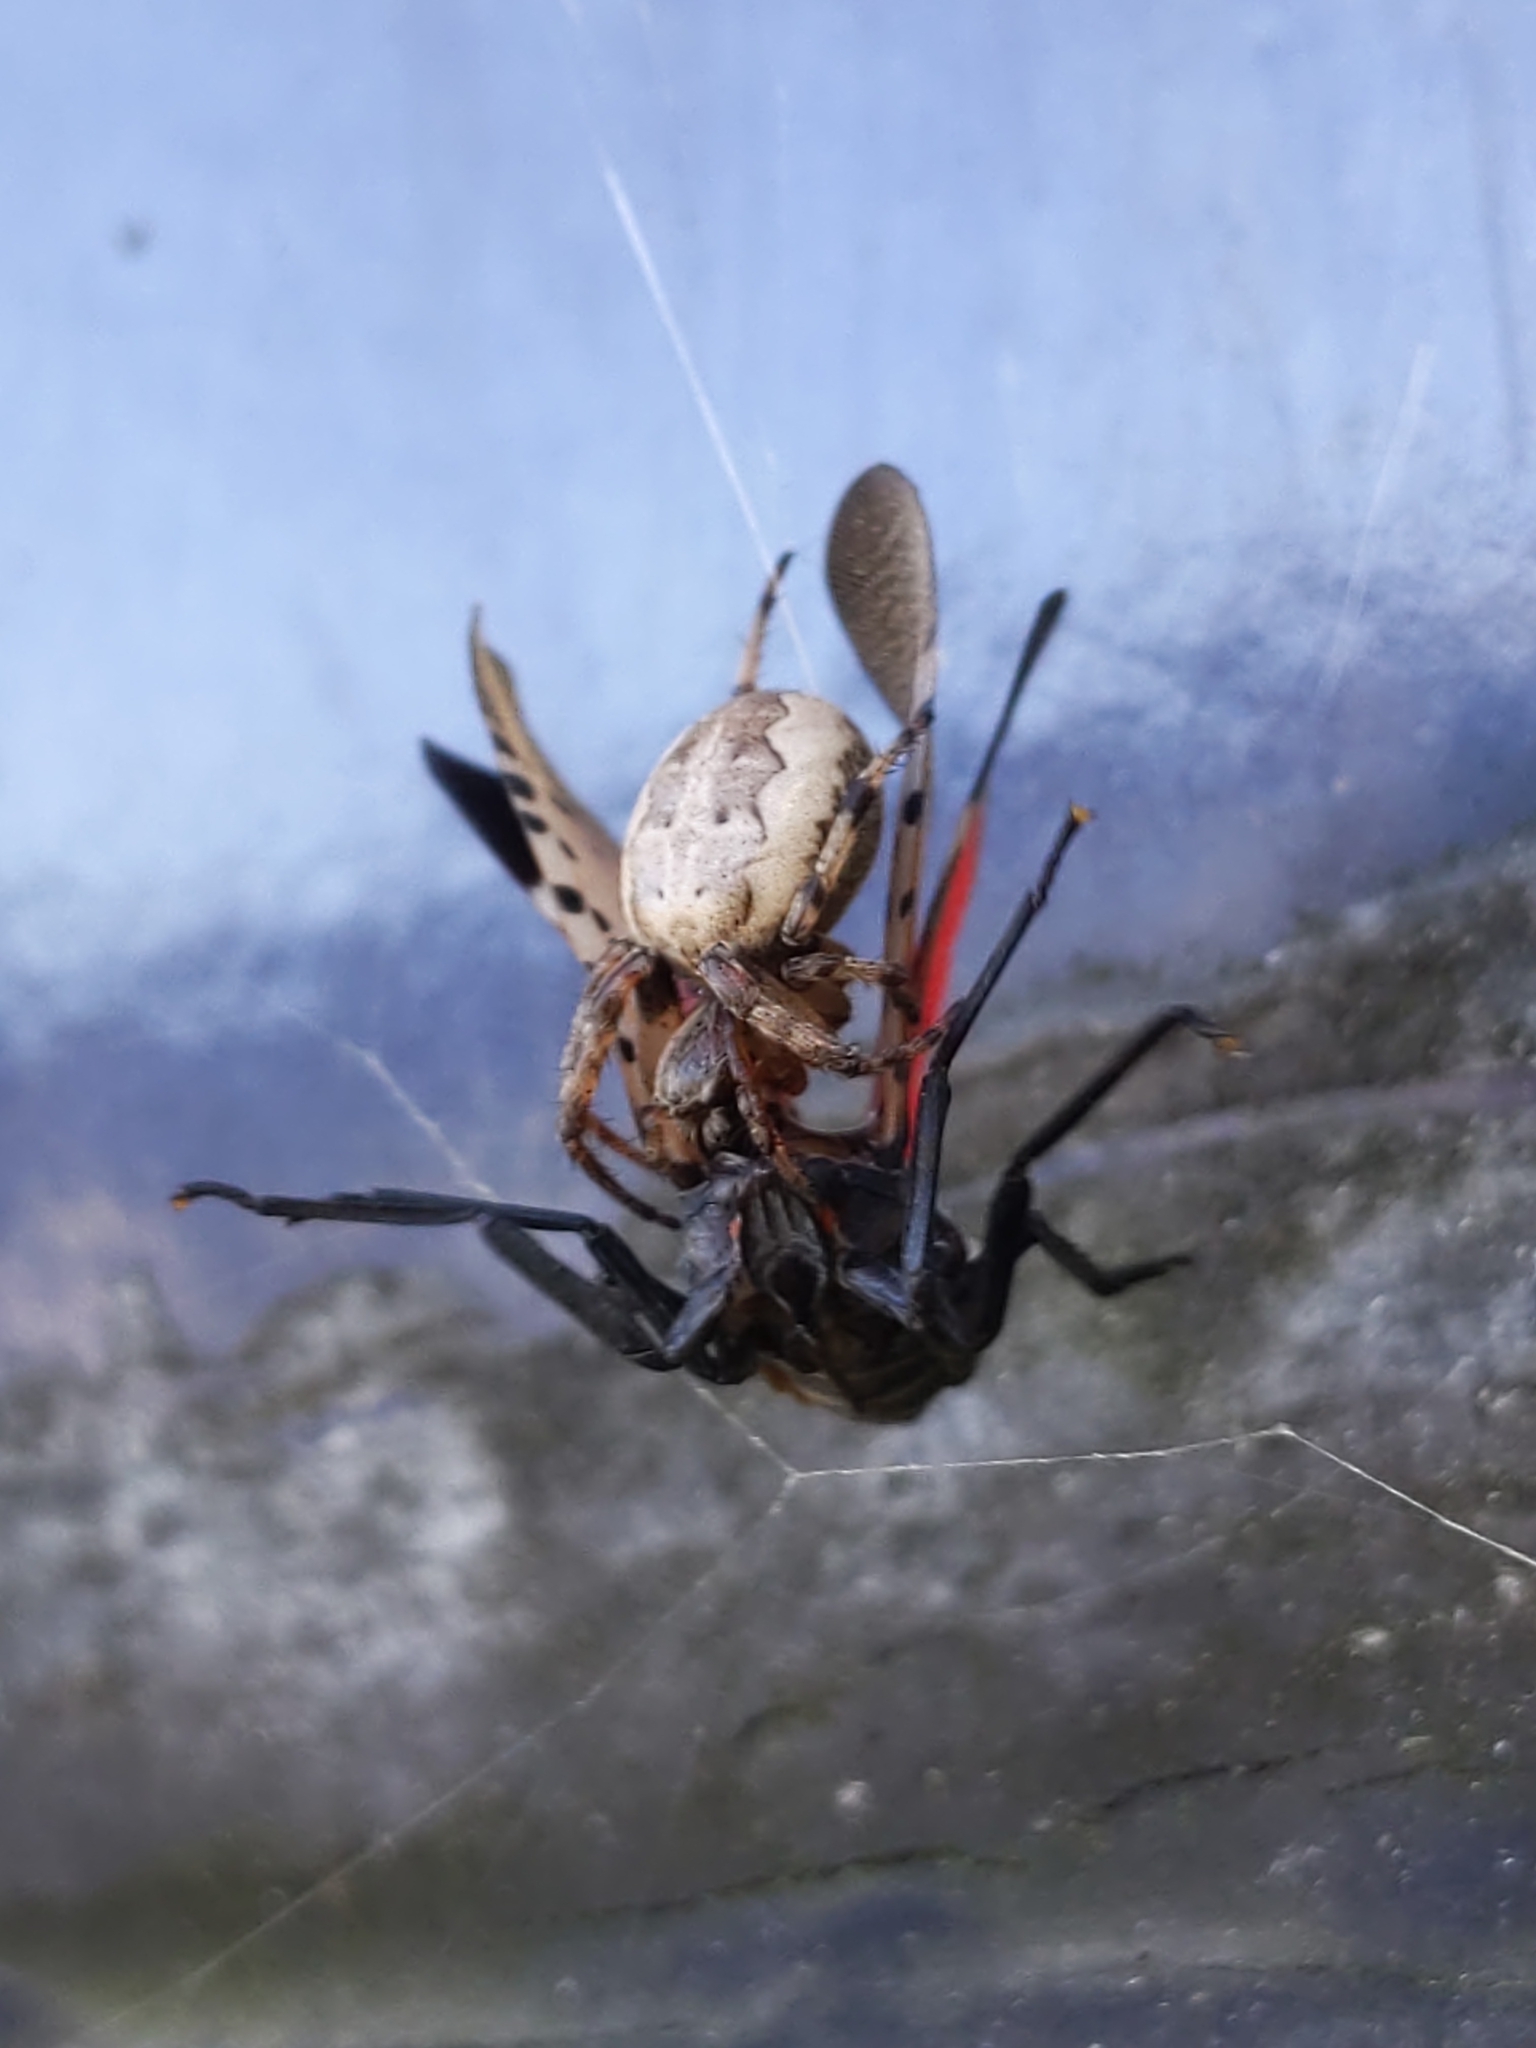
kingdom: Animalia
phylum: Arthropoda
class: Arachnida
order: Araneae
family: Araneidae
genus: Larinioides
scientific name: Larinioides cornutus
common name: Furrow orbweaver
